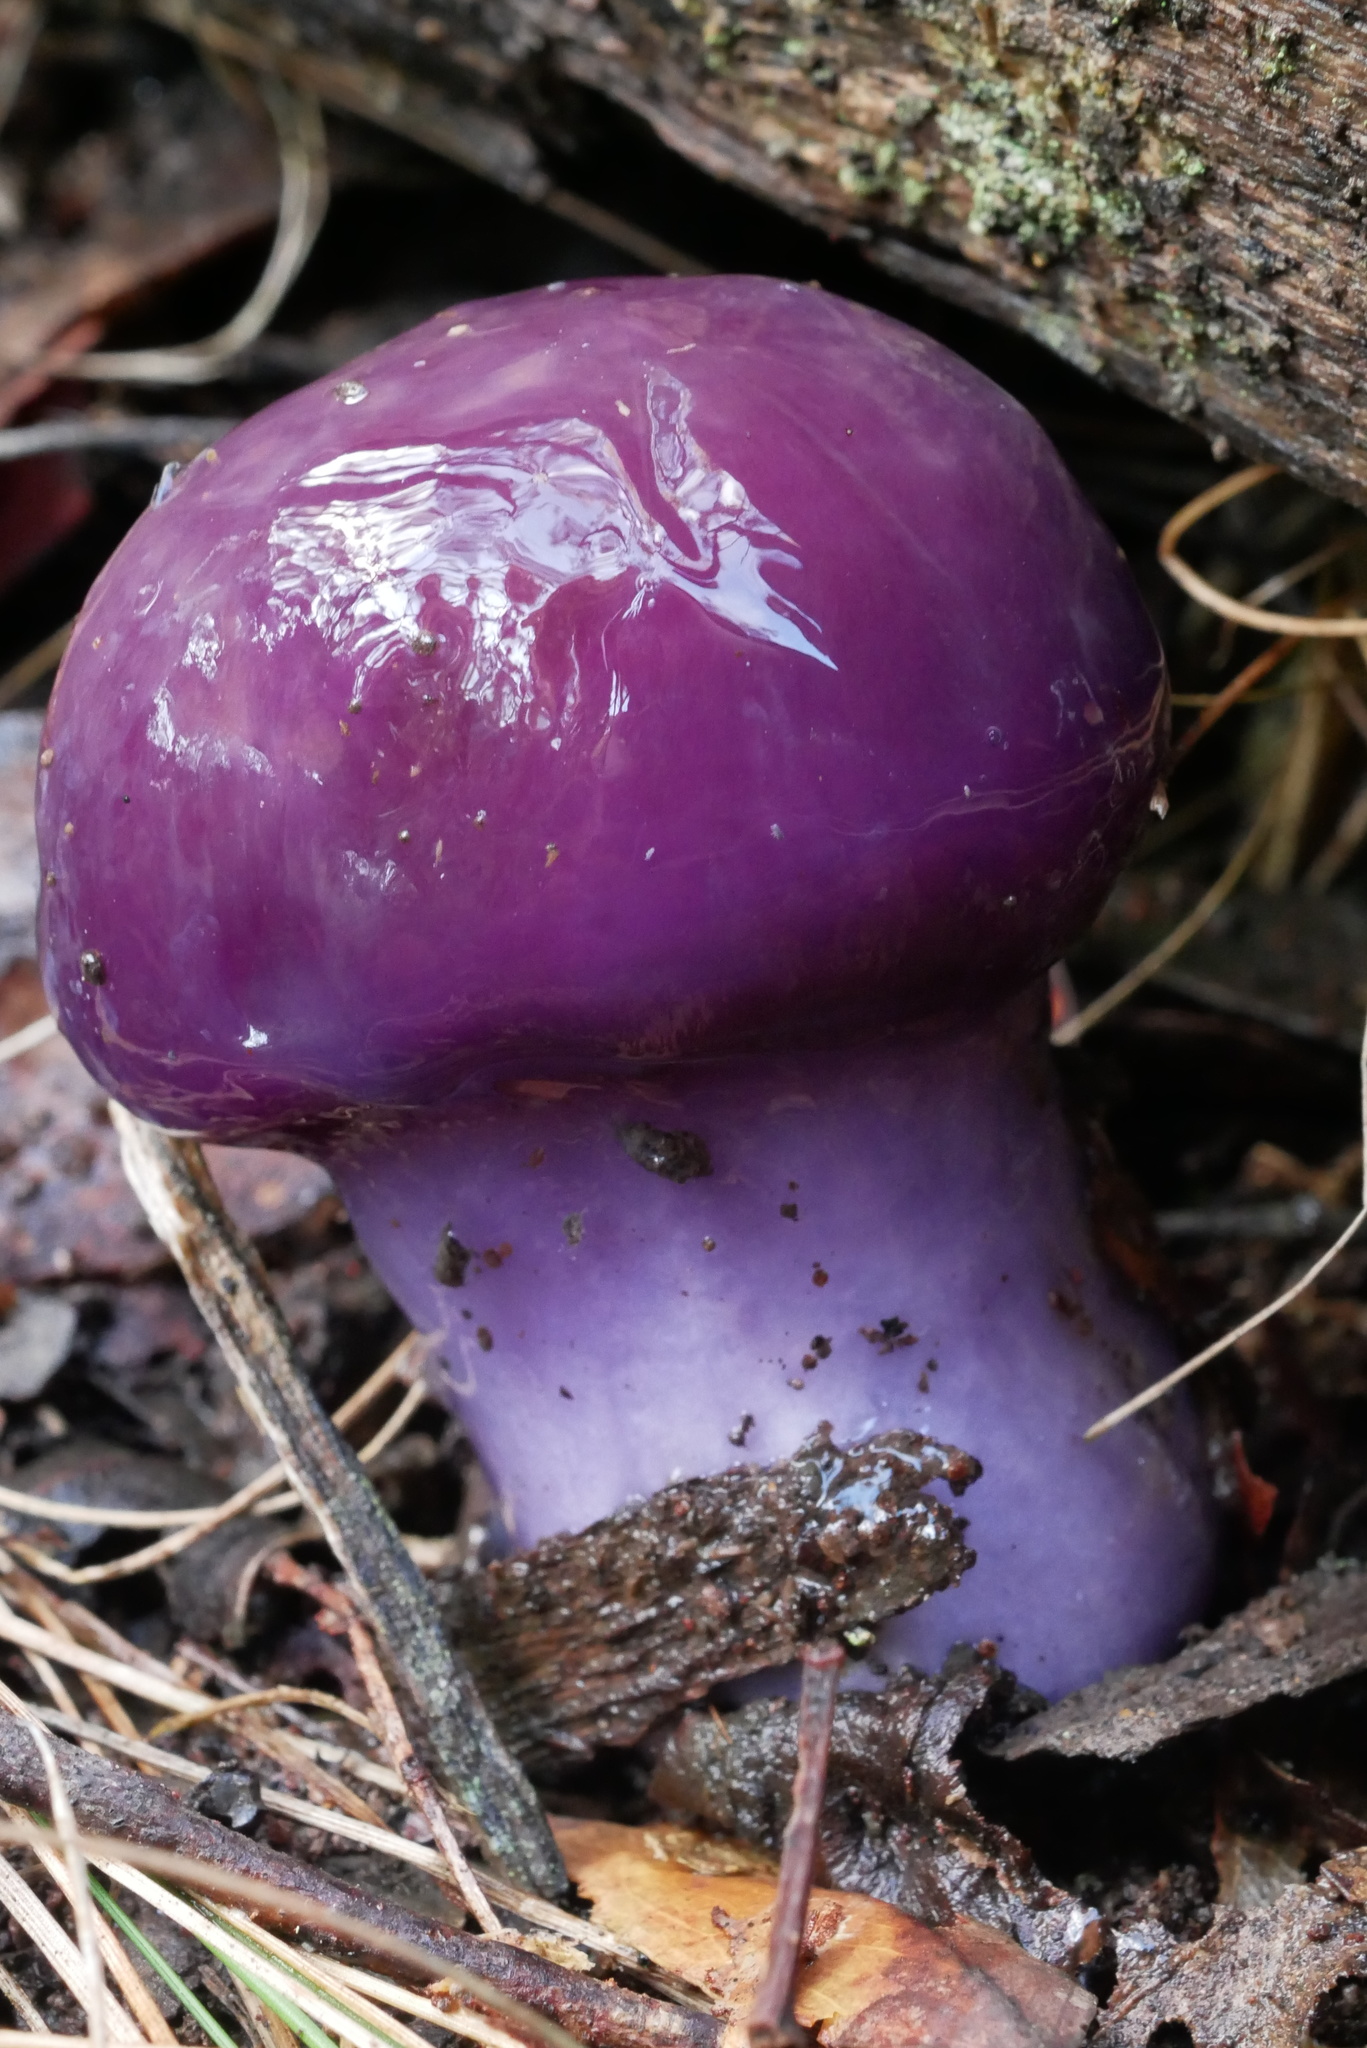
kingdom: Fungi
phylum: Basidiomycota
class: Agaricomycetes
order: Agaricales
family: Cortinariaceae
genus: Cortinarius
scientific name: Cortinarius archeri
